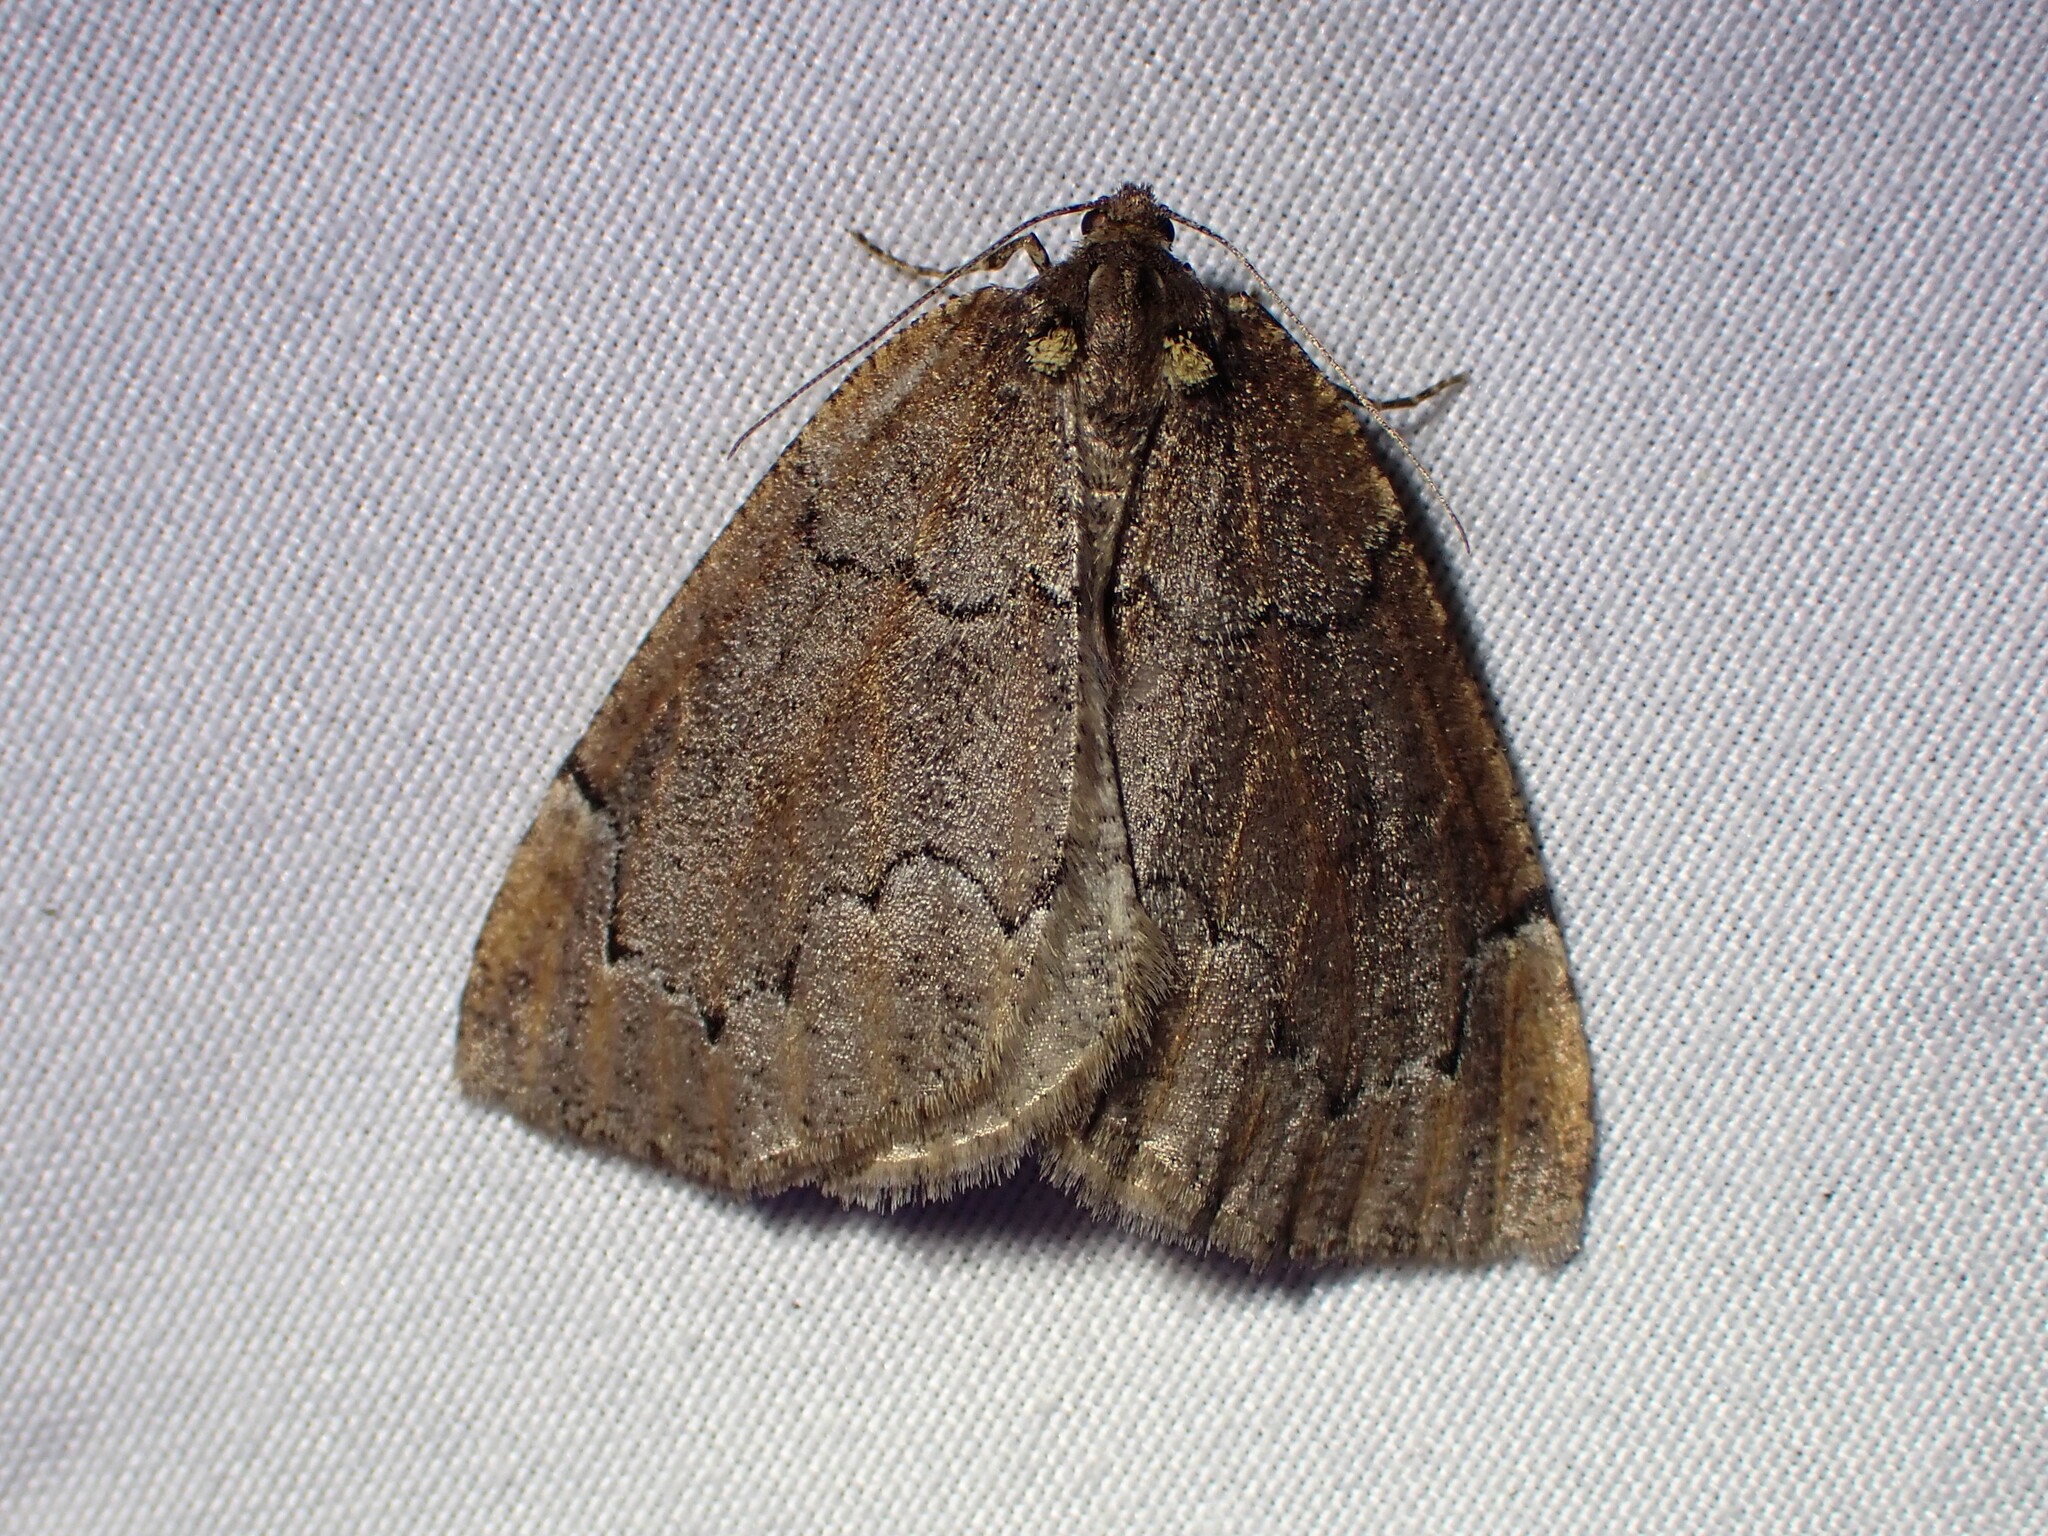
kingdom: Animalia
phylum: Arthropoda
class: Insecta
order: Lepidoptera
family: Geometridae
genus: Spodolepis
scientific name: Spodolepis substriataria
